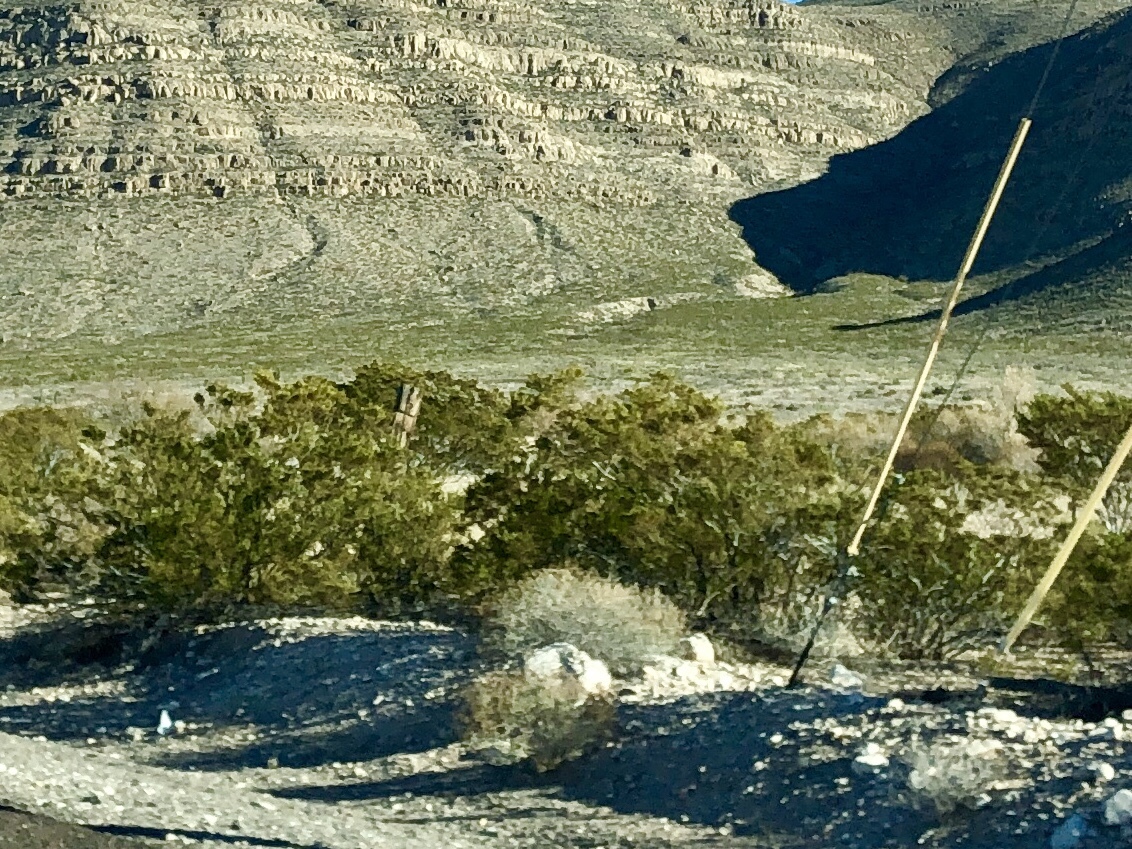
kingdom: Plantae
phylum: Tracheophyta
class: Magnoliopsida
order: Zygophyllales
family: Zygophyllaceae
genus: Larrea
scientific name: Larrea tridentata
